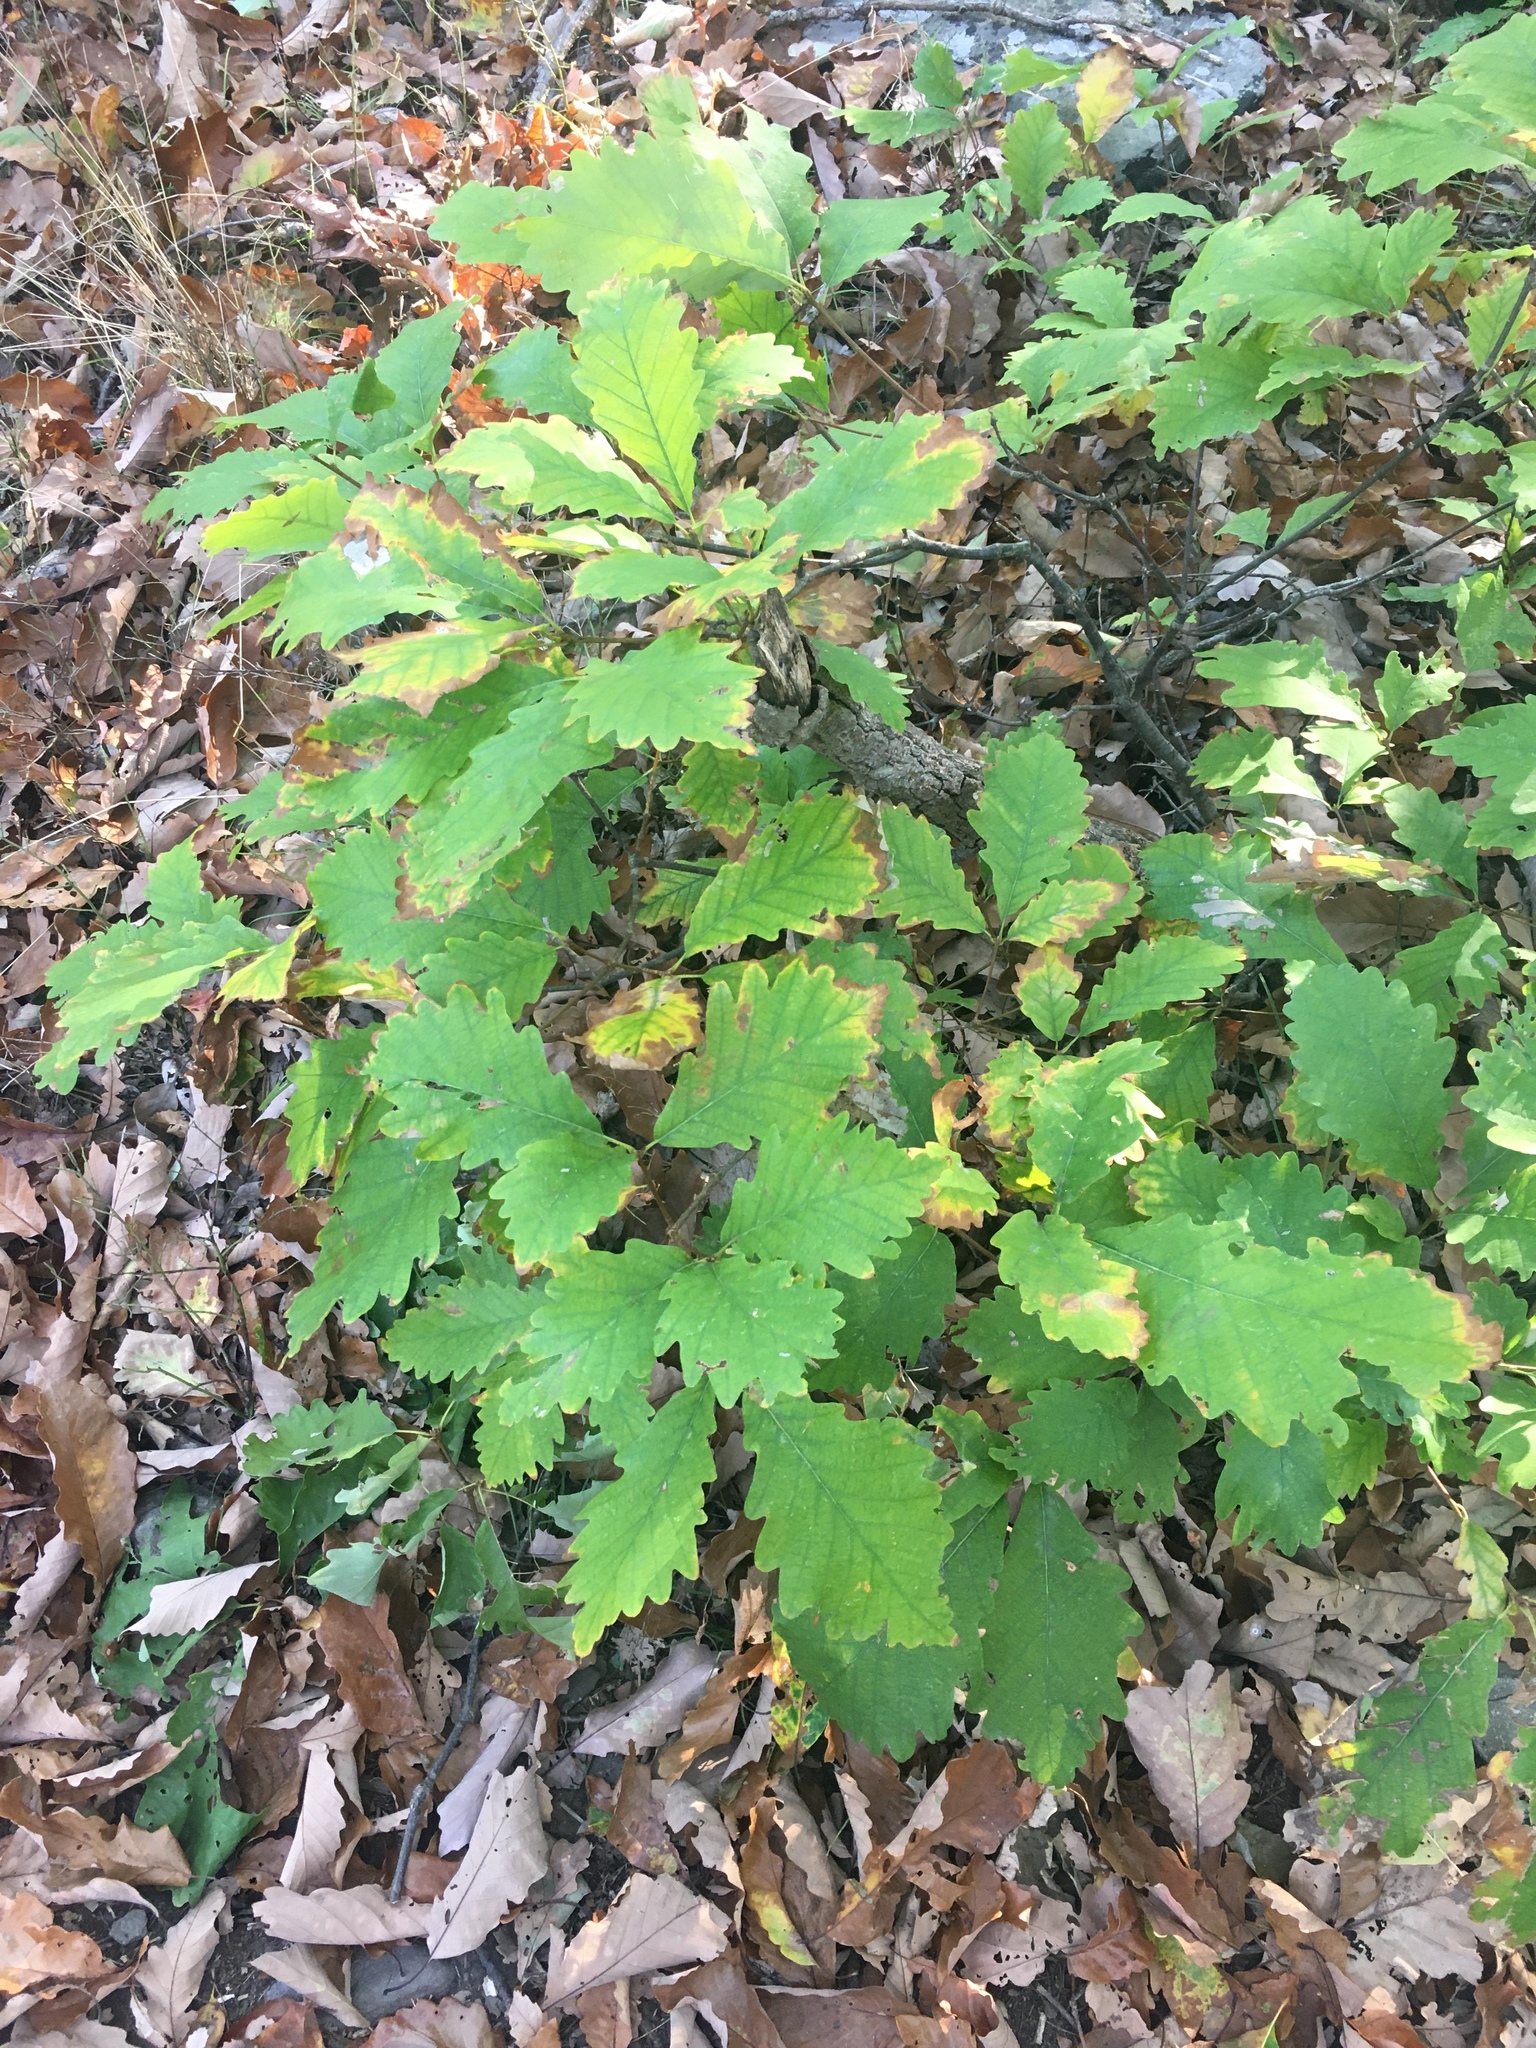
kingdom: Plantae
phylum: Tracheophyta
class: Magnoliopsida
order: Fagales
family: Fagaceae
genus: Quercus
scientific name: Quercus montana
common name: Chestnut oak
